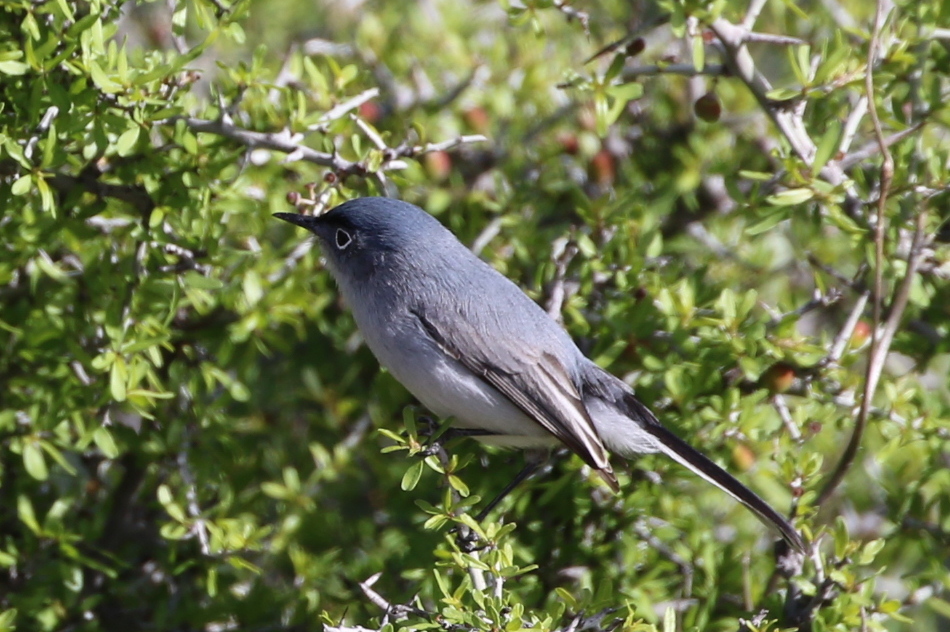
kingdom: Animalia
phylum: Chordata
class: Aves
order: Passeriformes
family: Polioptilidae
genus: Polioptila
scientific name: Polioptila caerulea
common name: Blue-gray gnatcatcher
